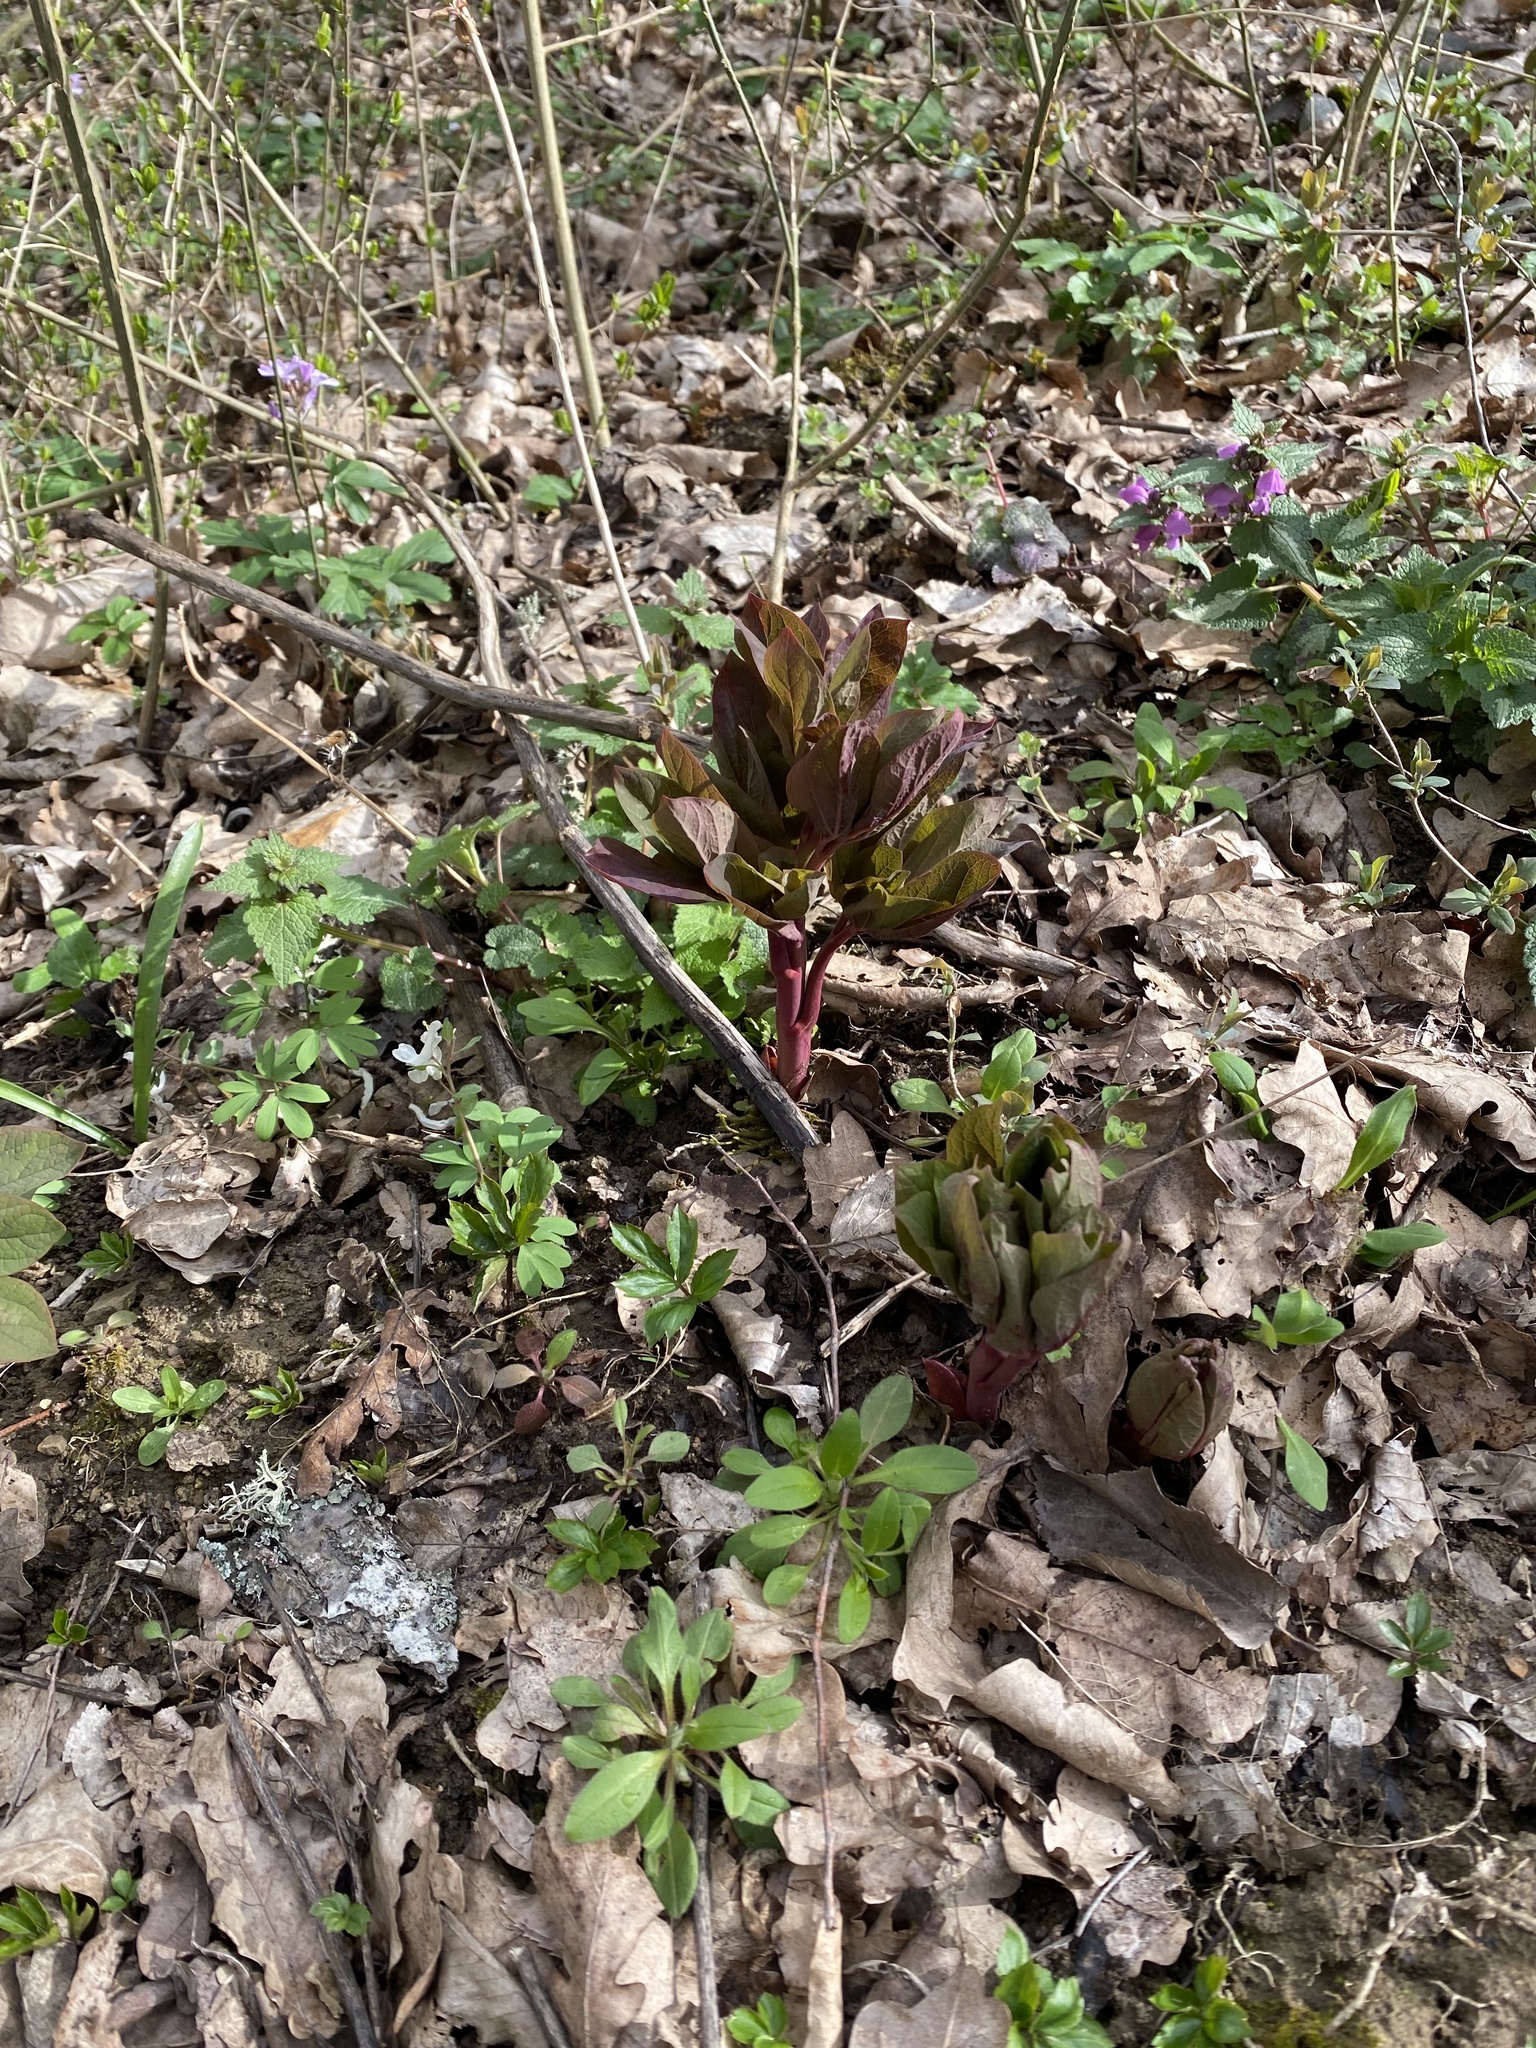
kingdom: Plantae
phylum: Tracheophyta
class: Magnoliopsida
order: Saxifragales
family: Paeoniaceae
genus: Paeonia
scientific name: Paeonia caucasica
